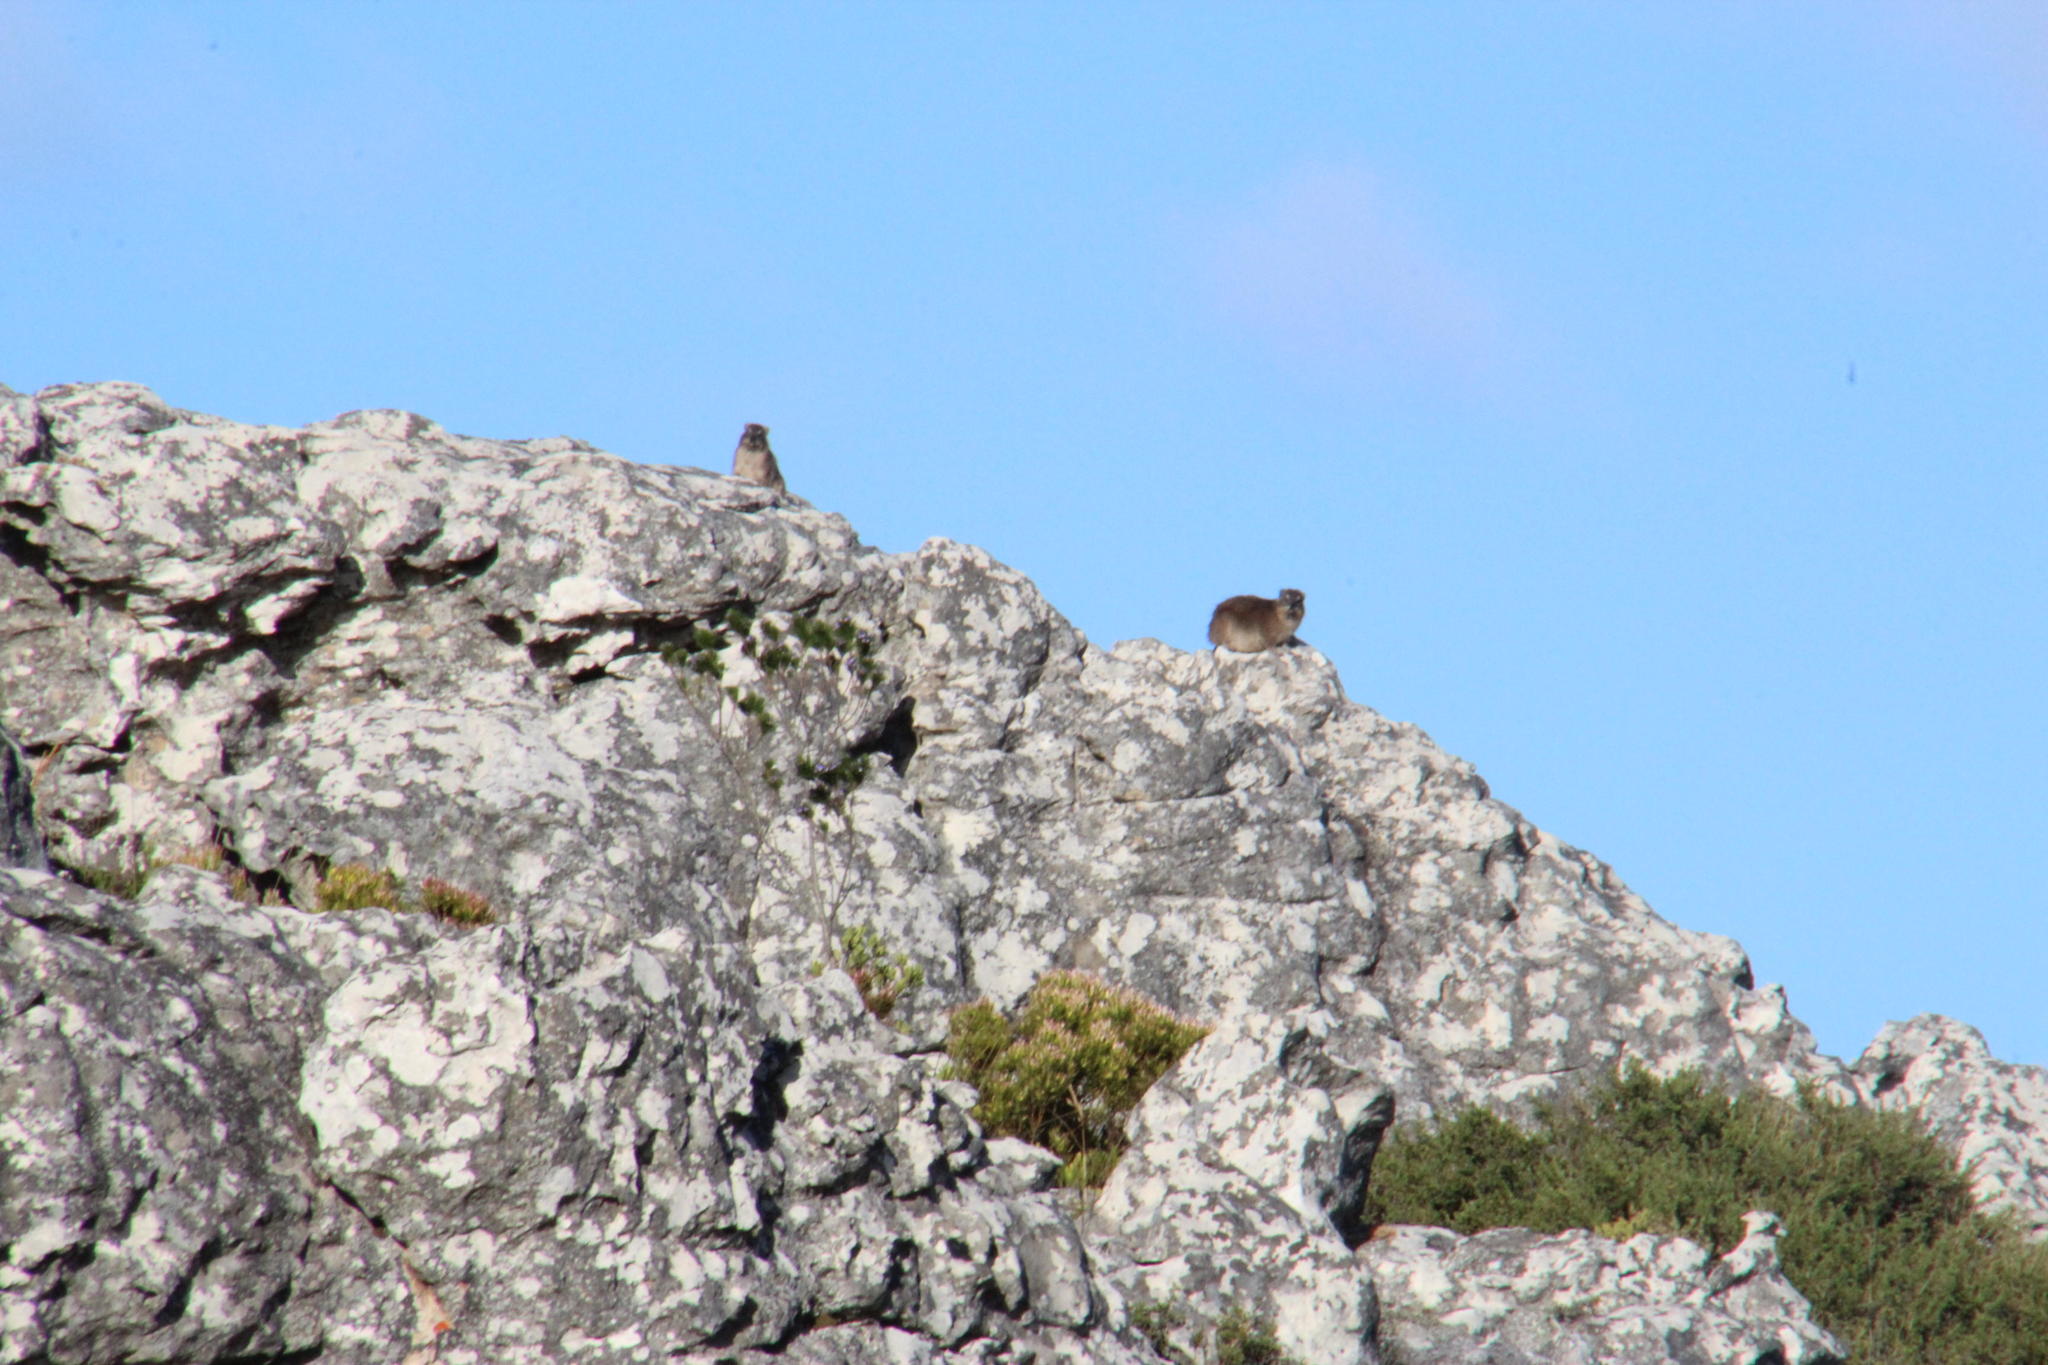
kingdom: Animalia
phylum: Chordata
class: Mammalia
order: Hyracoidea
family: Procaviidae
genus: Procavia
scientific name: Procavia capensis
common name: Rock hyrax
